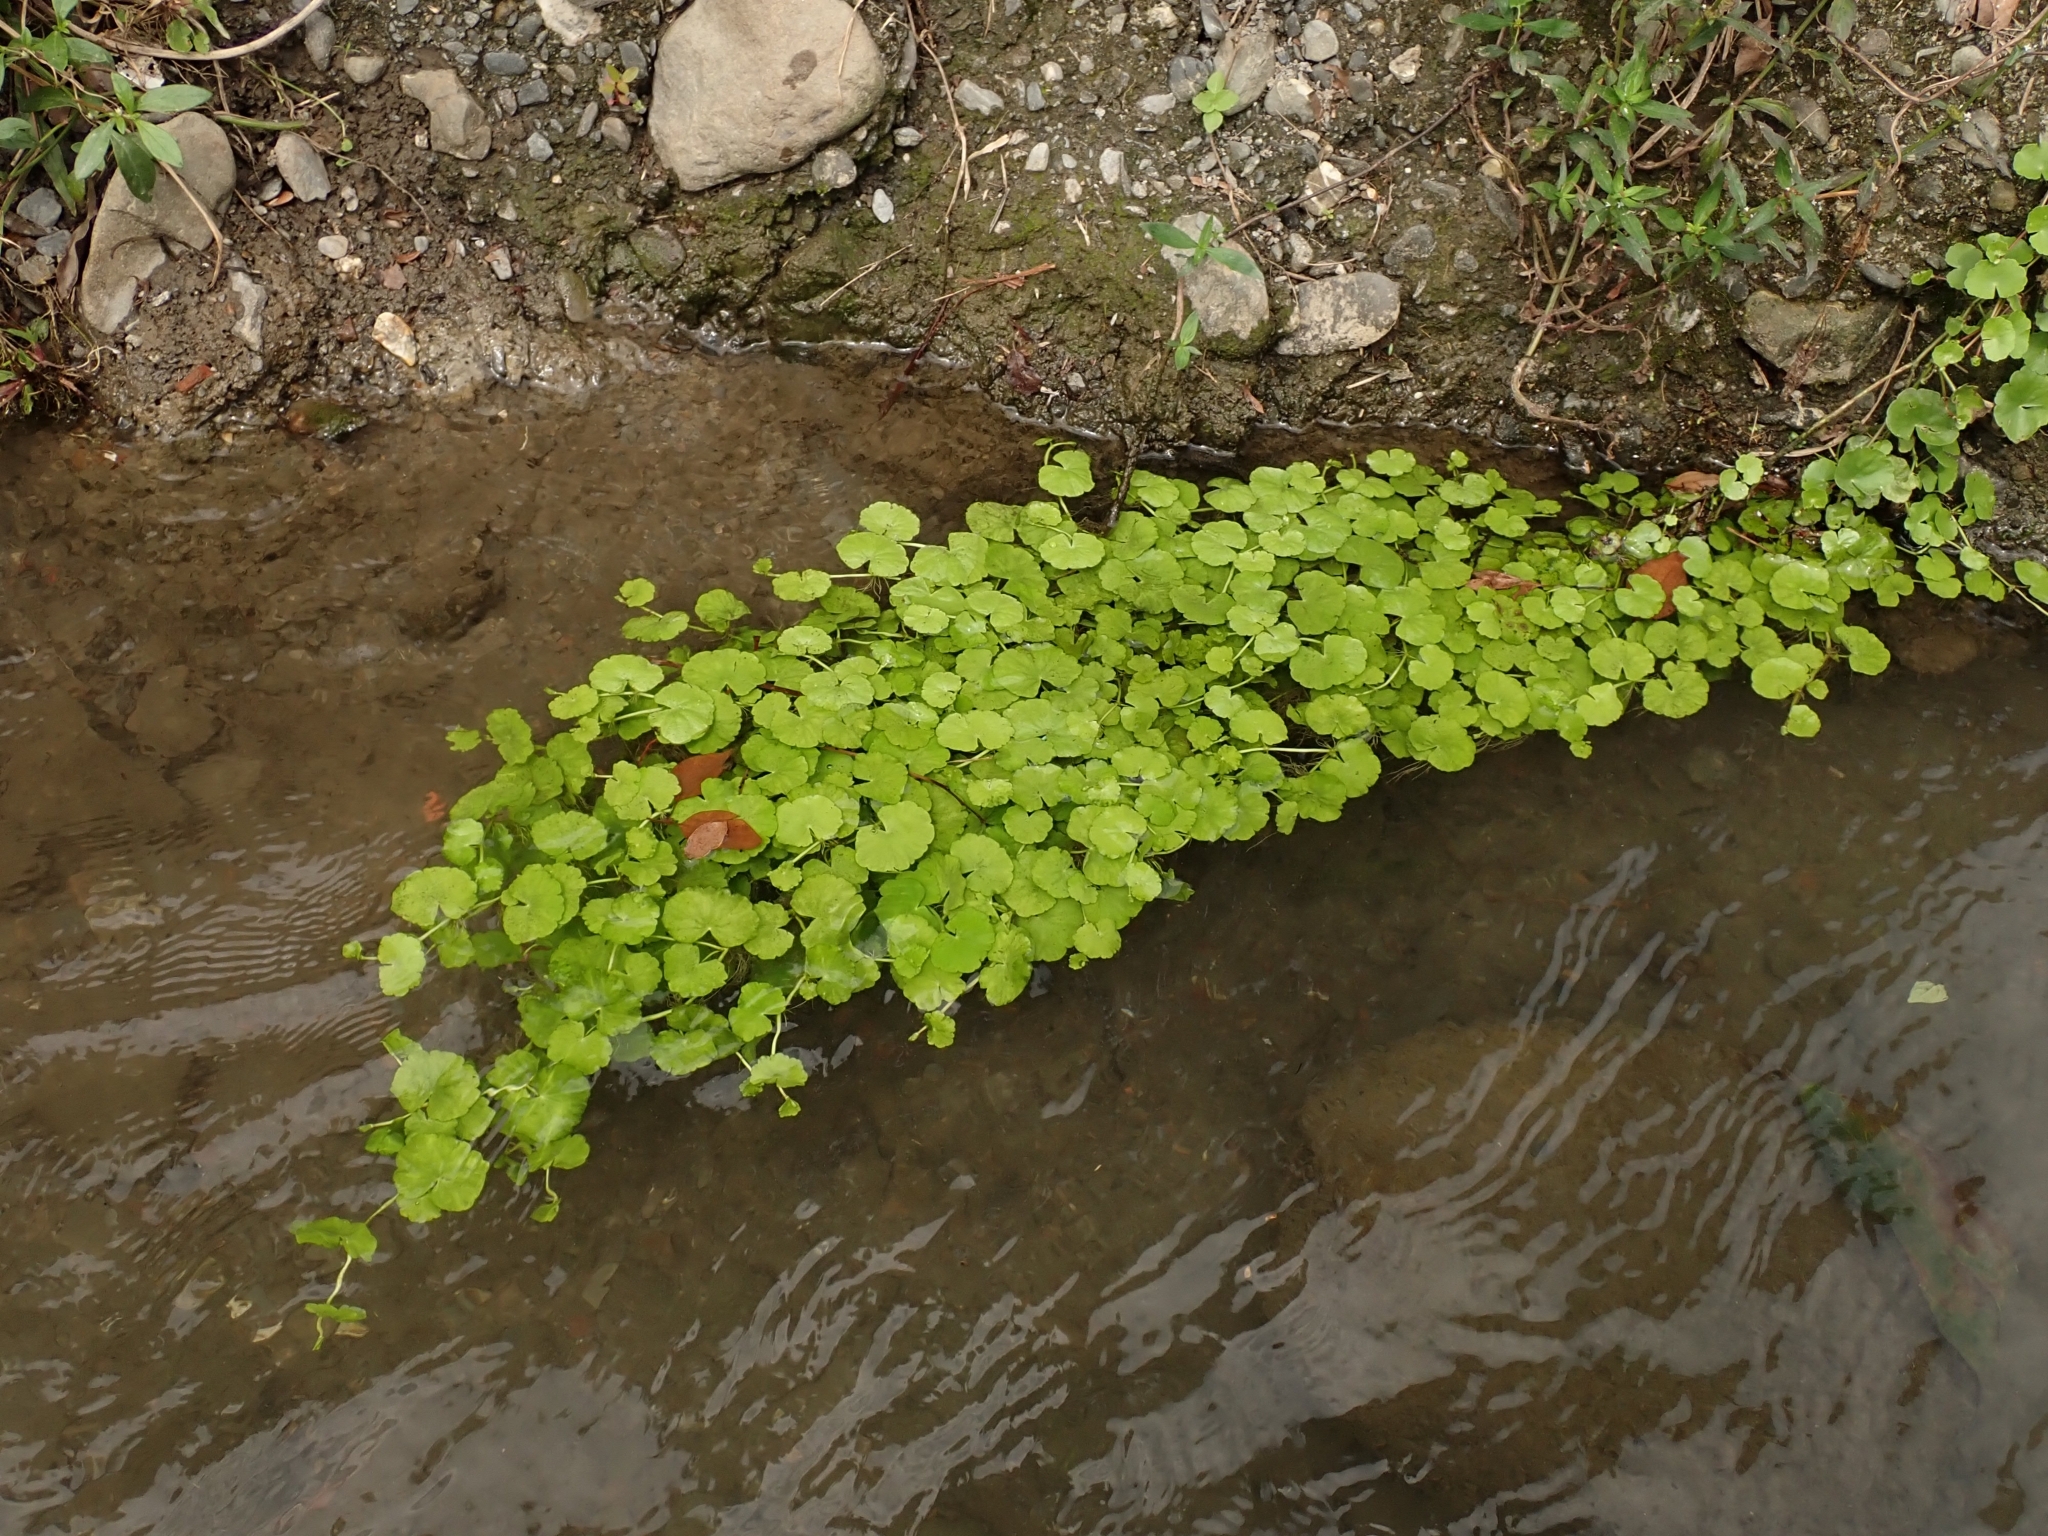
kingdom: Plantae
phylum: Tracheophyta
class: Magnoliopsida
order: Apiales
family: Araliaceae
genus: Hydrocotyle
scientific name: Hydrocotyle leucocephala
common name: Brazilian pennywort
